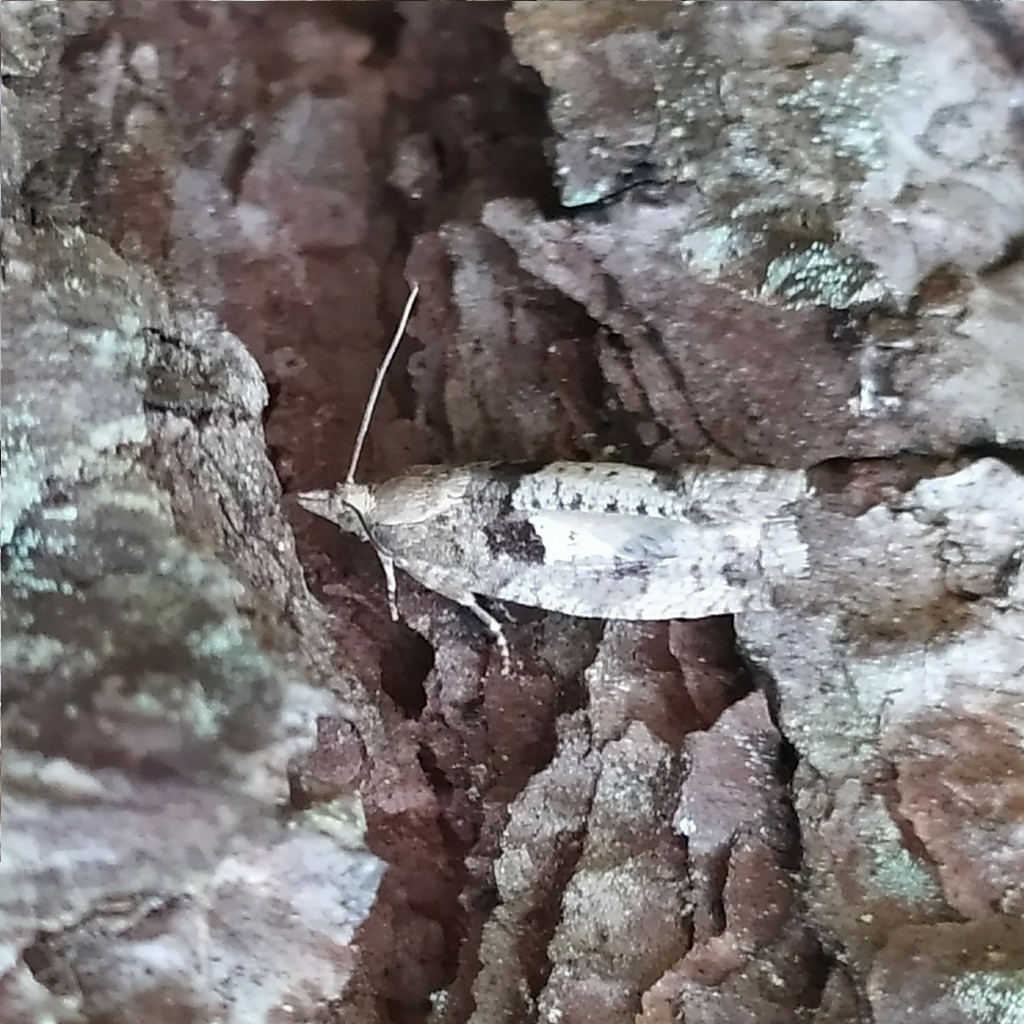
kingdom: Animalia
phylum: Arthropoda
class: Insecta
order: Lepidoptera
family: Tortricidae
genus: Epinotia
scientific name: Epinotia brunnichana
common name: Large birch bell
